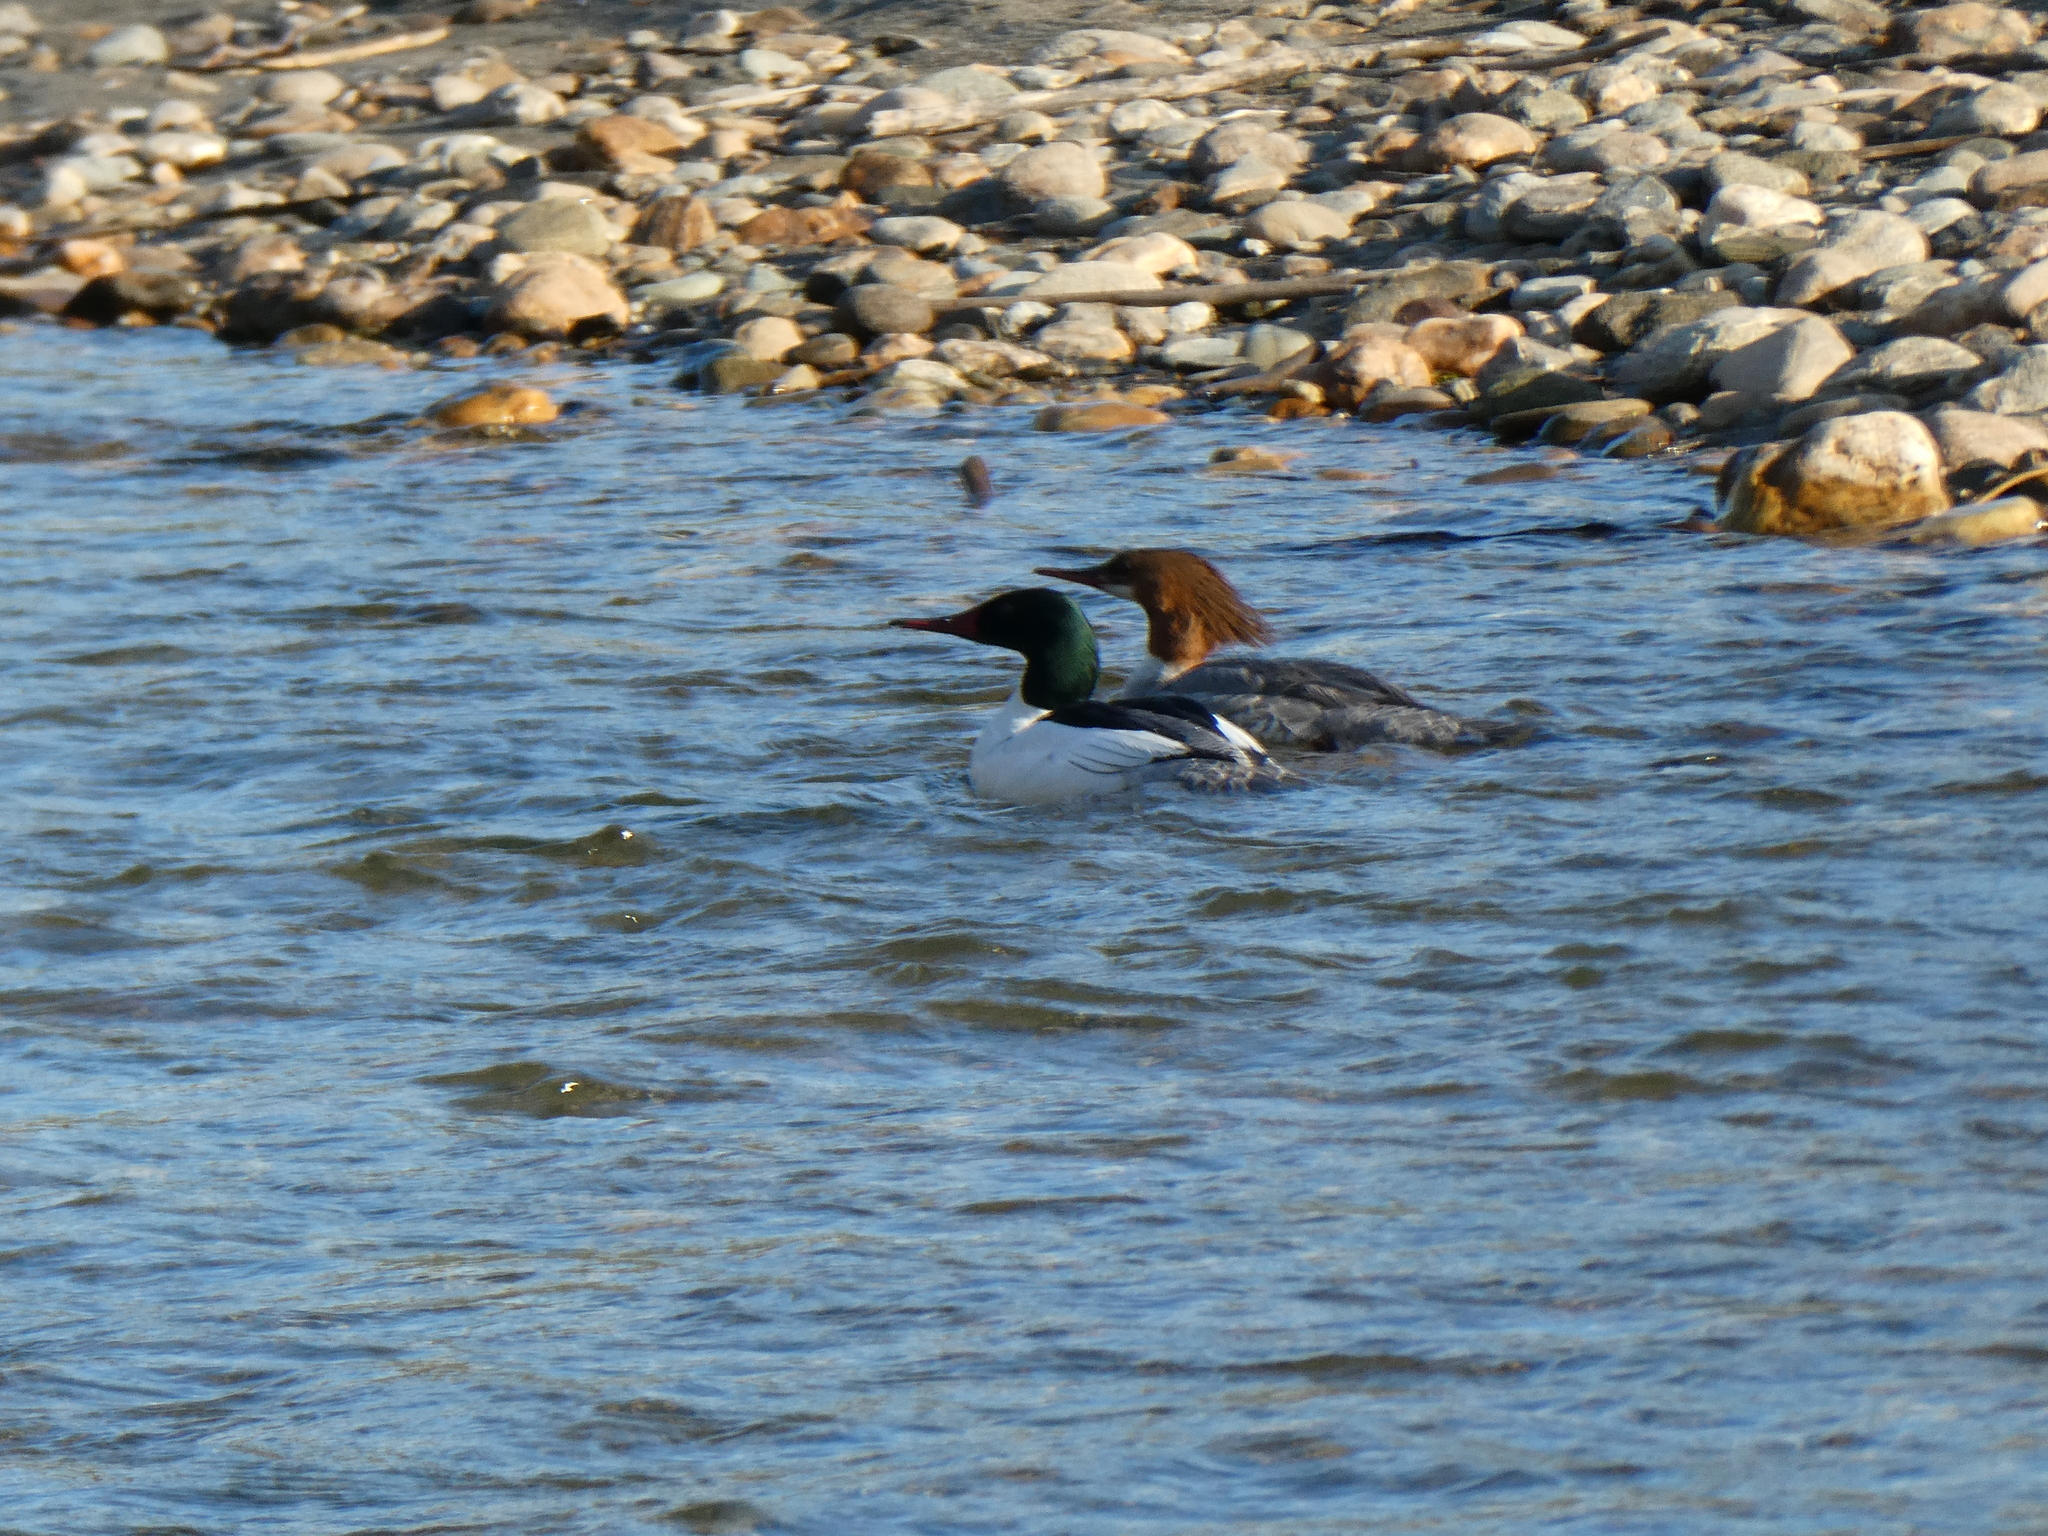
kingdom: Animalia
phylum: Chordata
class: Aves
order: Anseriformes
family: Anatidae
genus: Mergus
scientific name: Mergus merganser
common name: Common merganser
